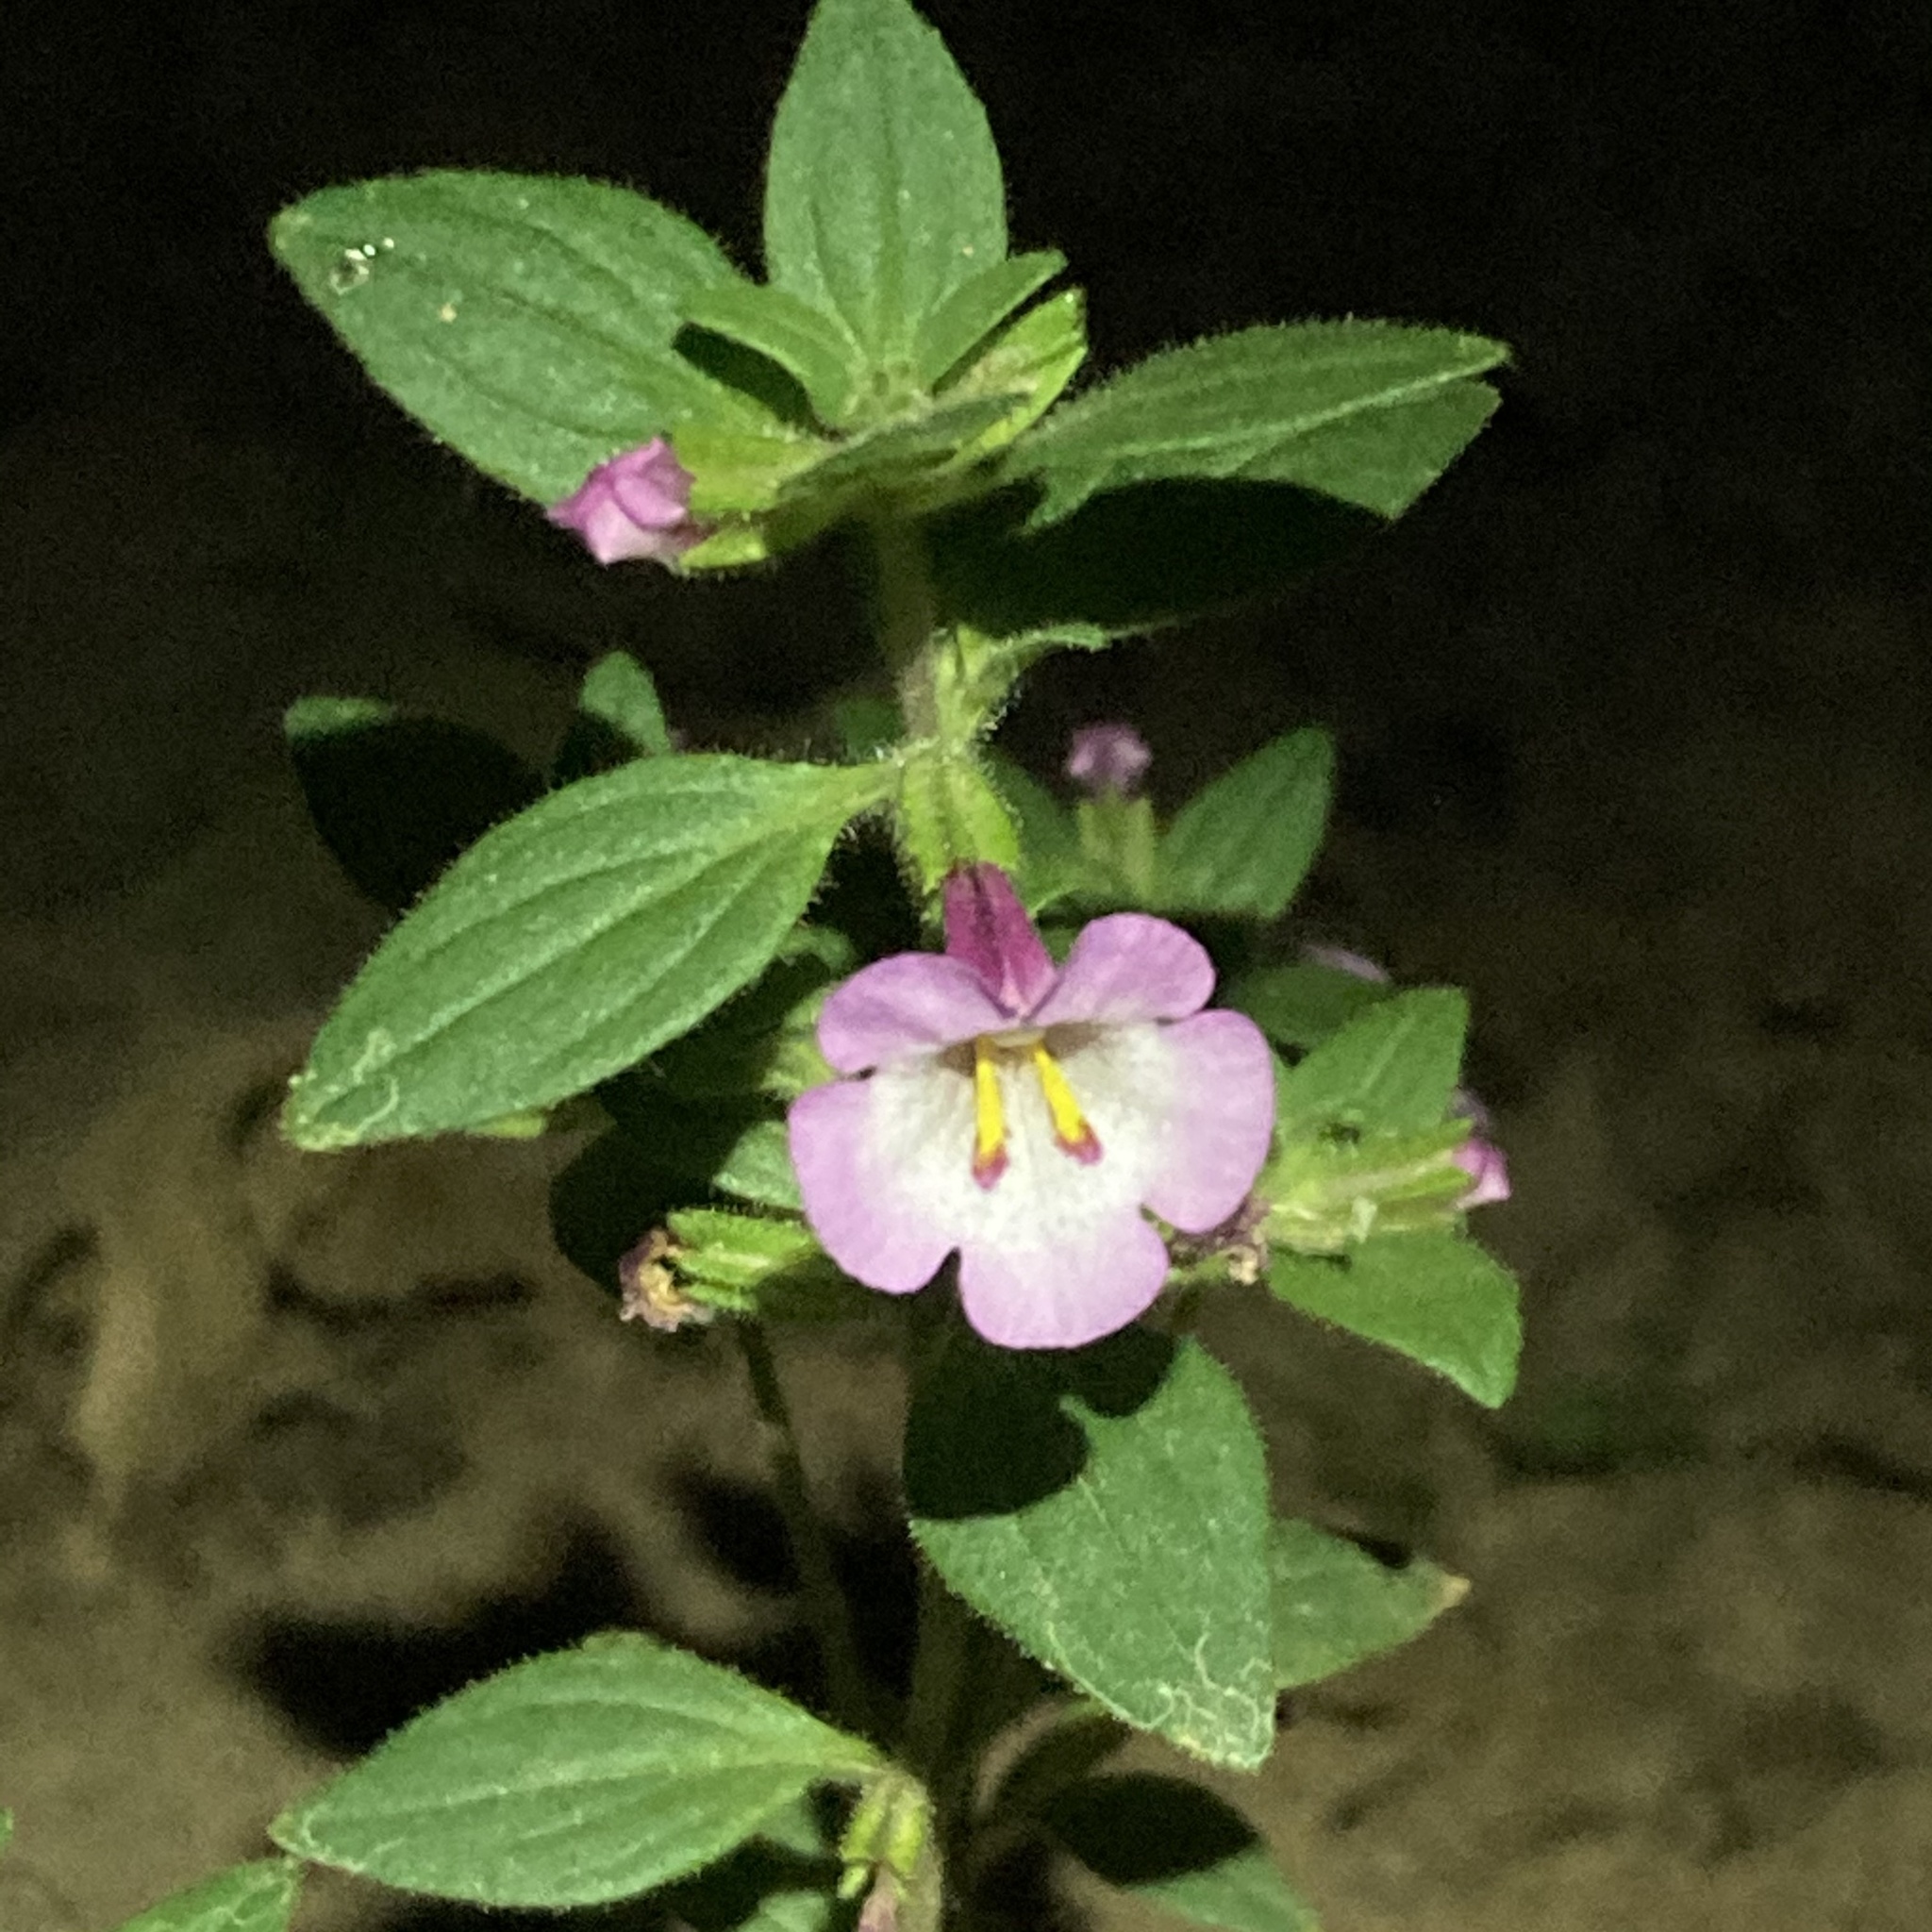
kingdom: Plantae
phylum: Tracheophyta
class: Magnoliopsida
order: Lamiales
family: Phrymaceae
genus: Diplacus
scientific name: Diplacus torreyi
